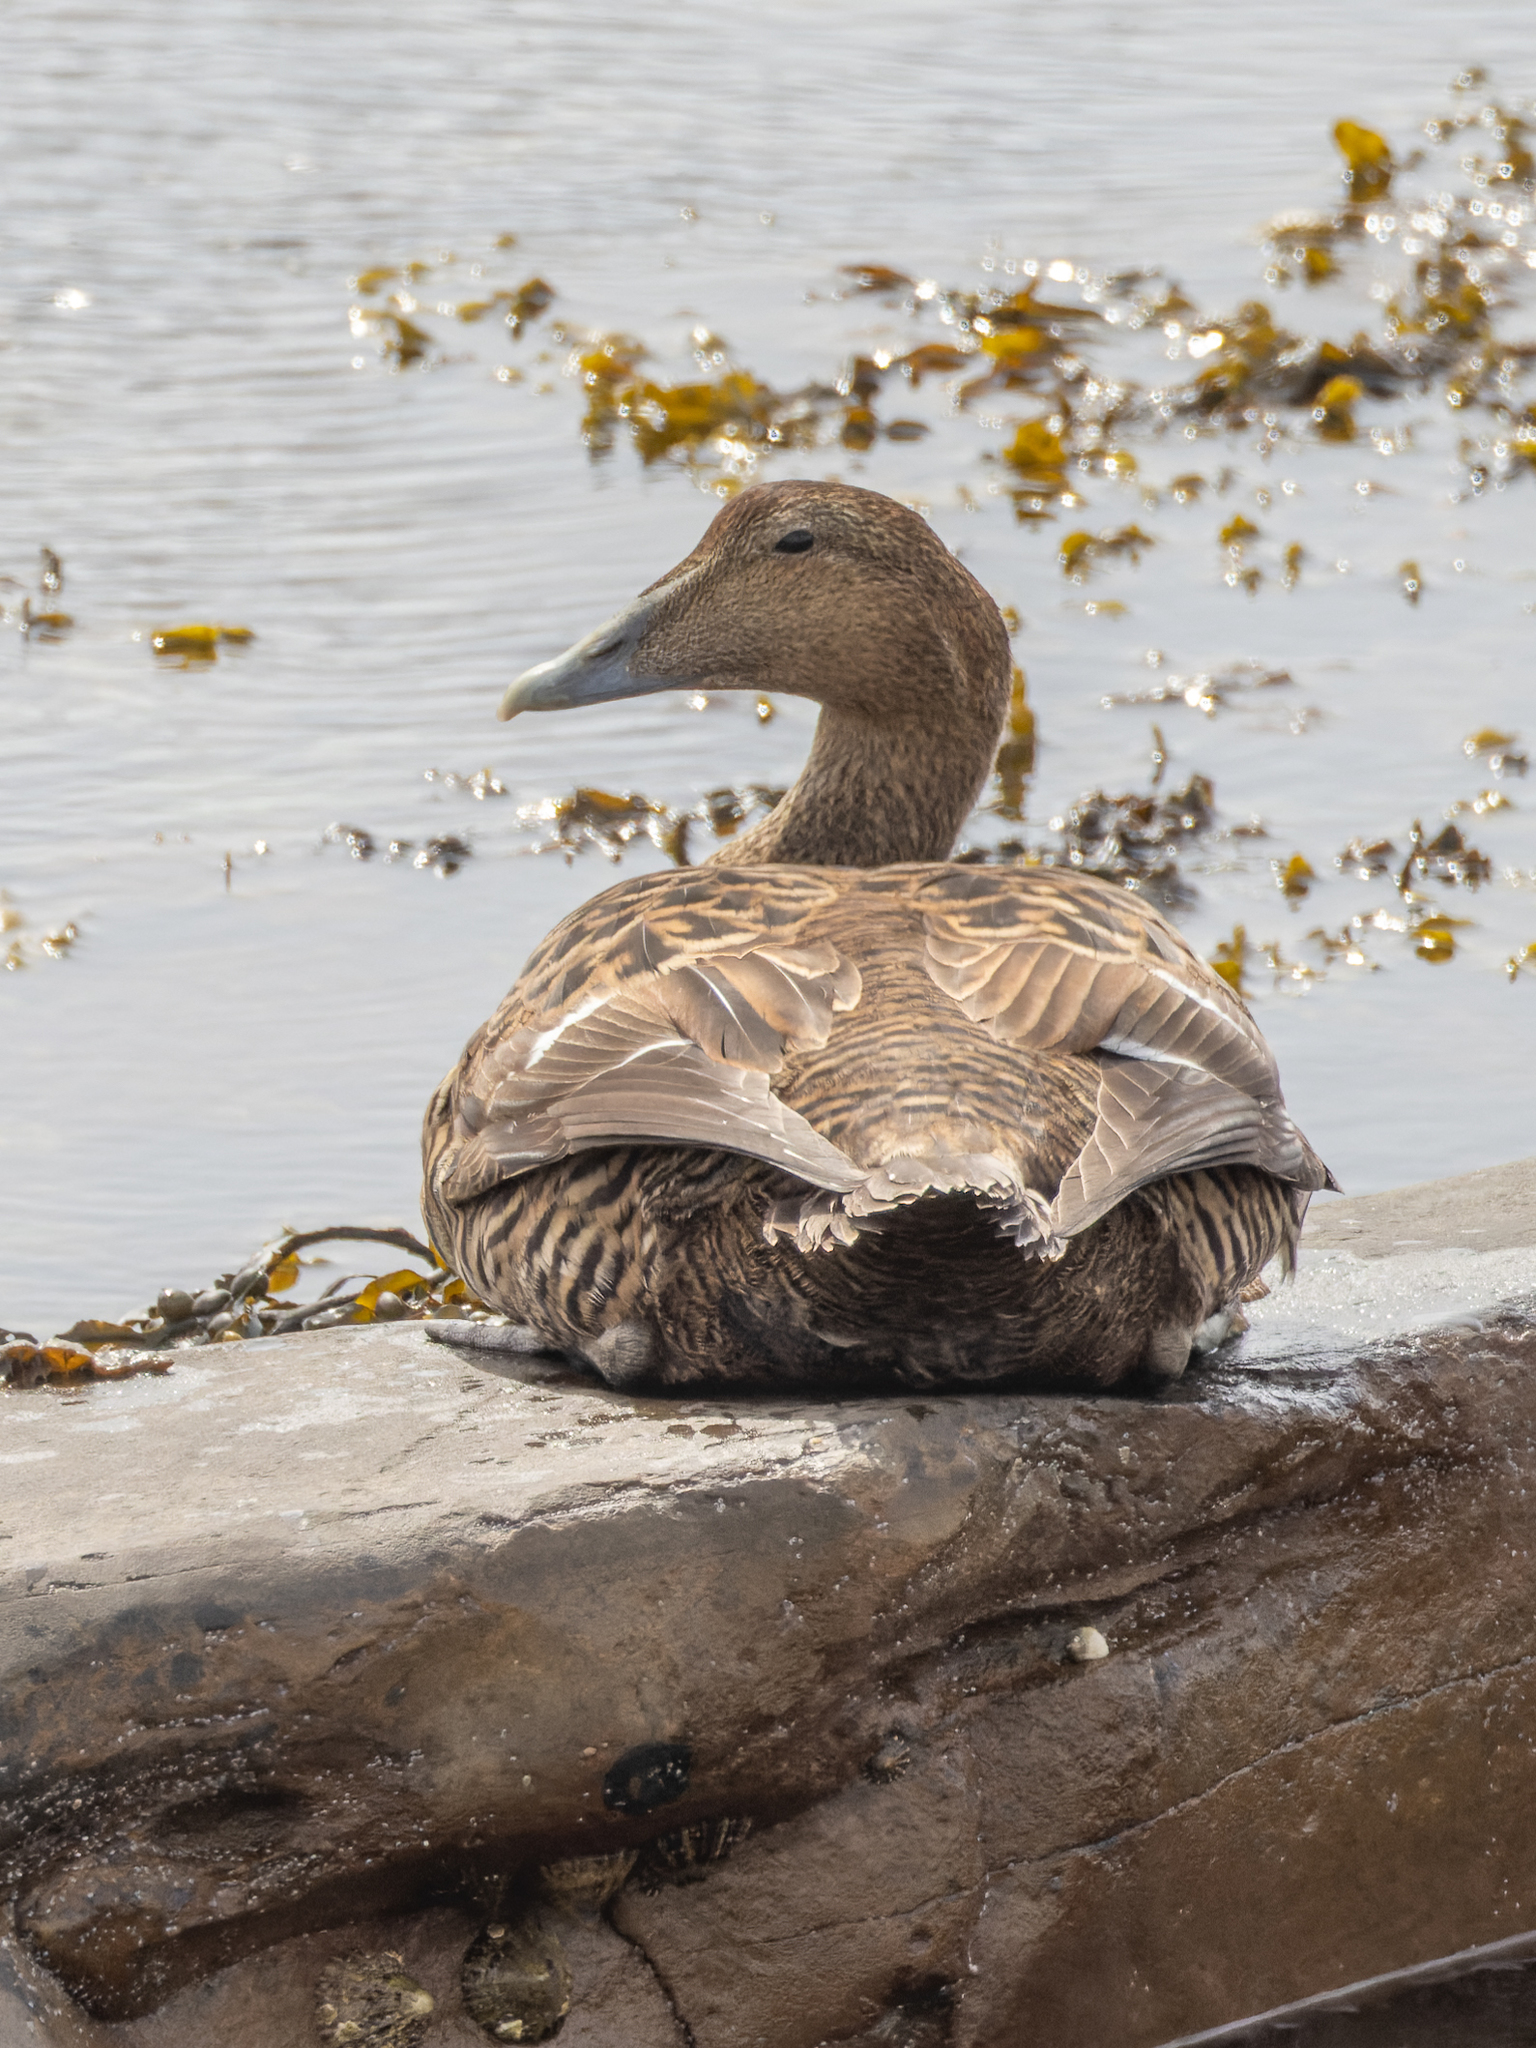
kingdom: Animalia
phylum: Chordata
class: Aves
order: Anseriformes
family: Anatidae
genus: Somateria
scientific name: Somateria mollissima
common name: Common eider
